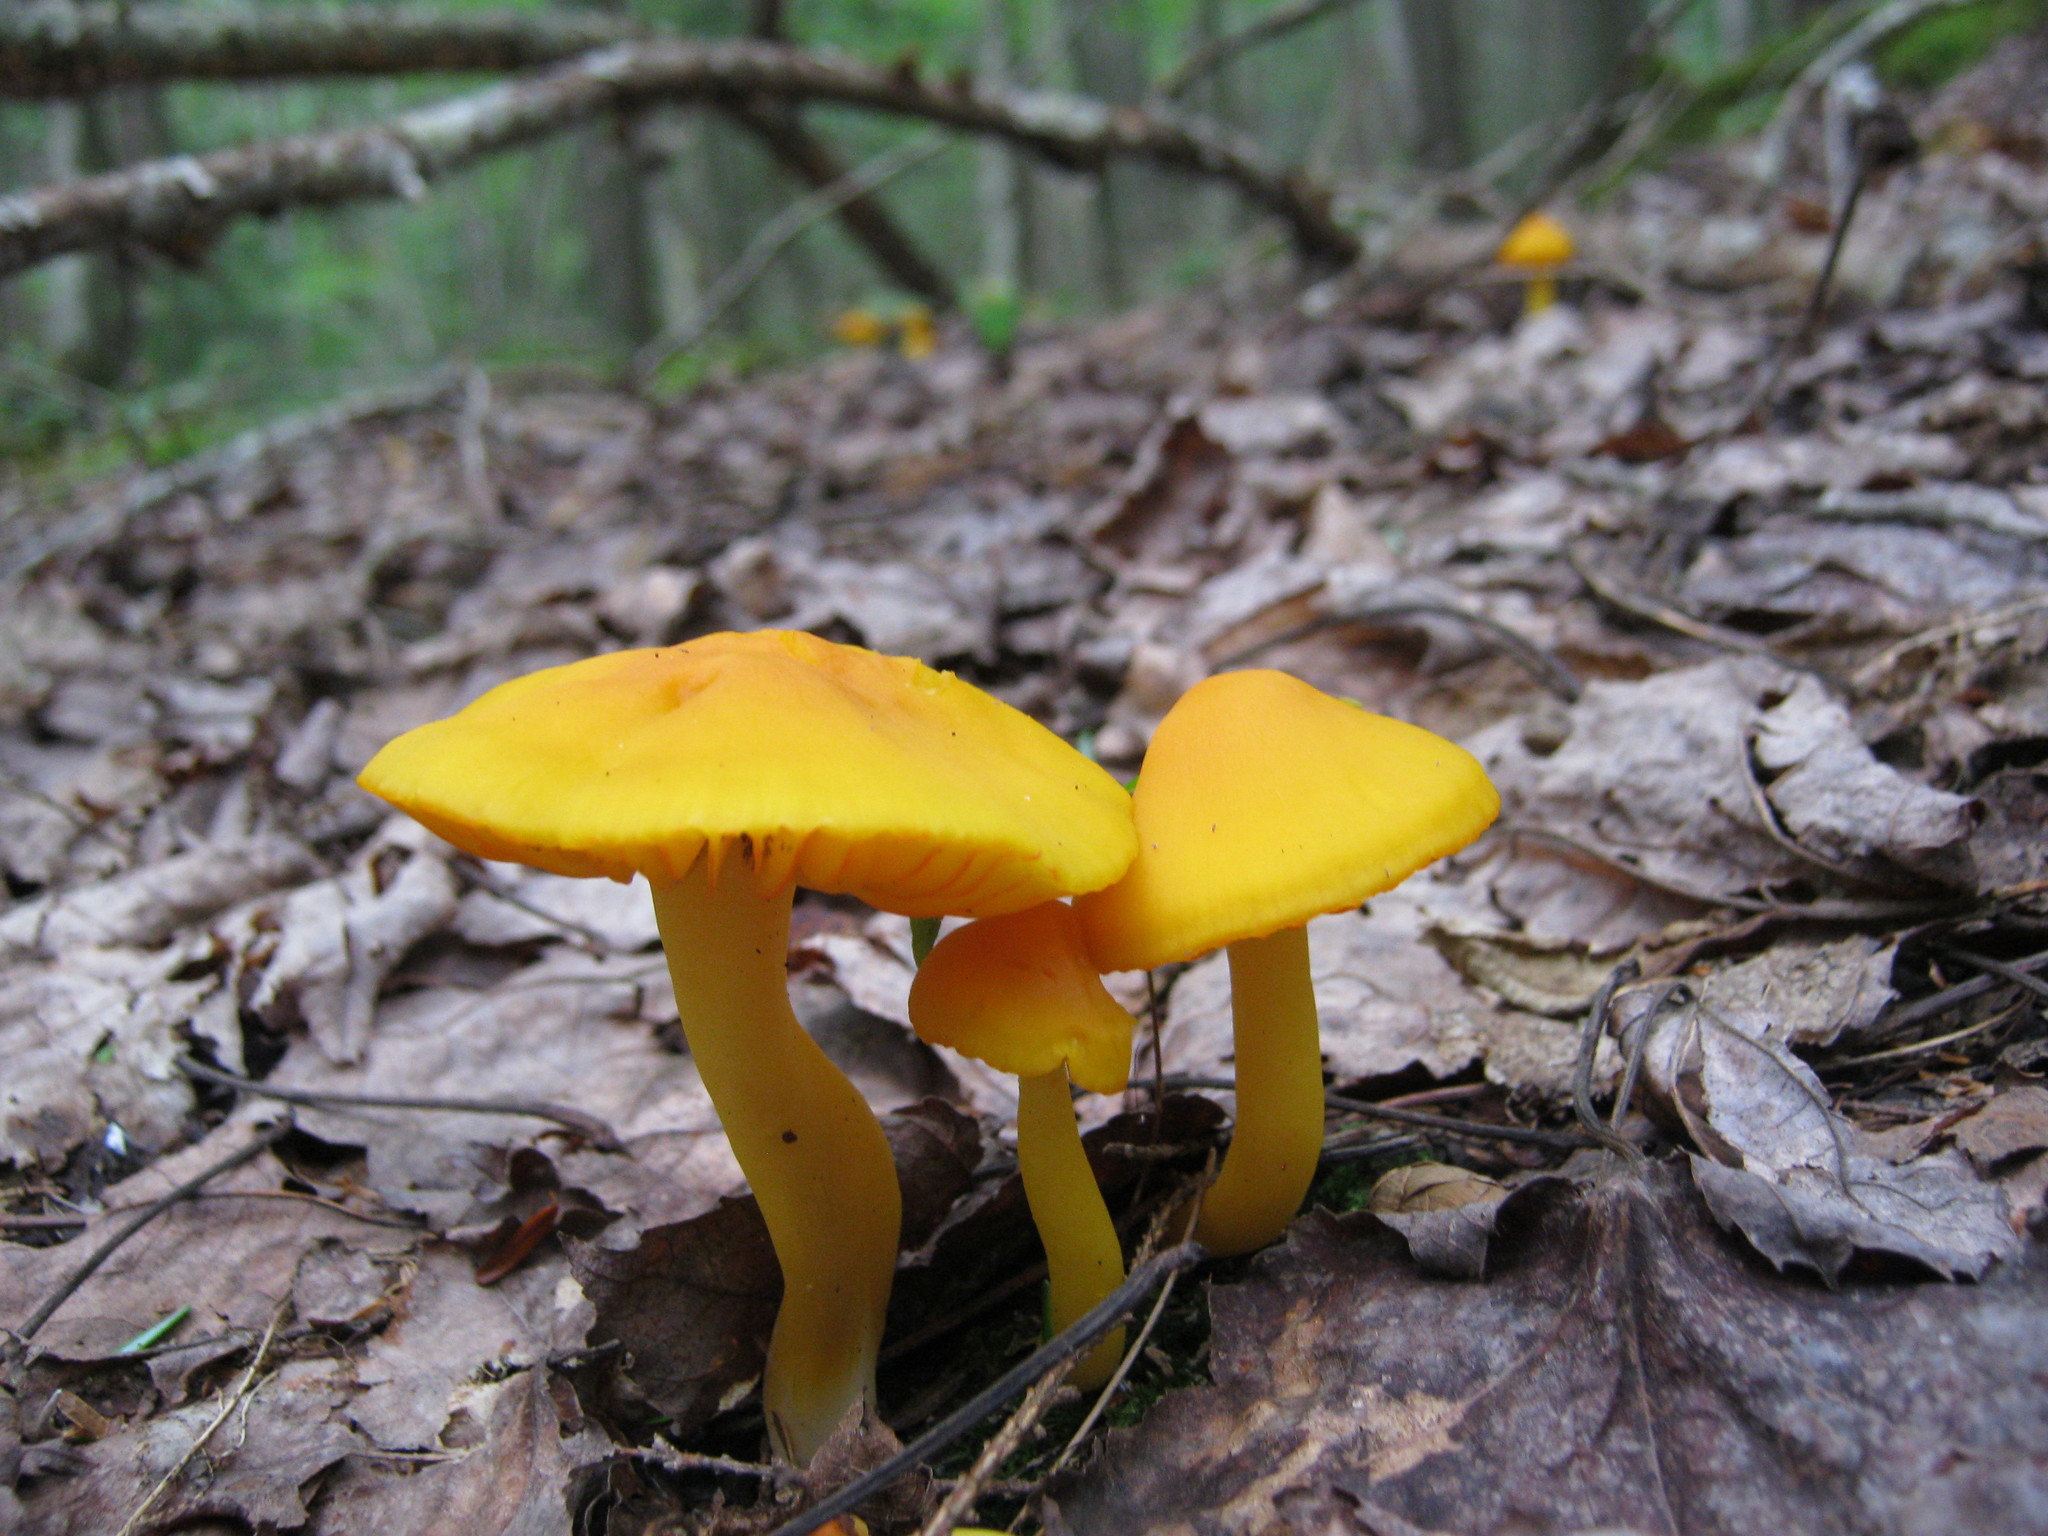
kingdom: Fungi
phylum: Basidiomycota
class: Agaricomycetes
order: Agaricales
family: Hygrophoraceae
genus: Humidicutis
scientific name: Humidicutis marginata
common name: Orange gilled waxcap
